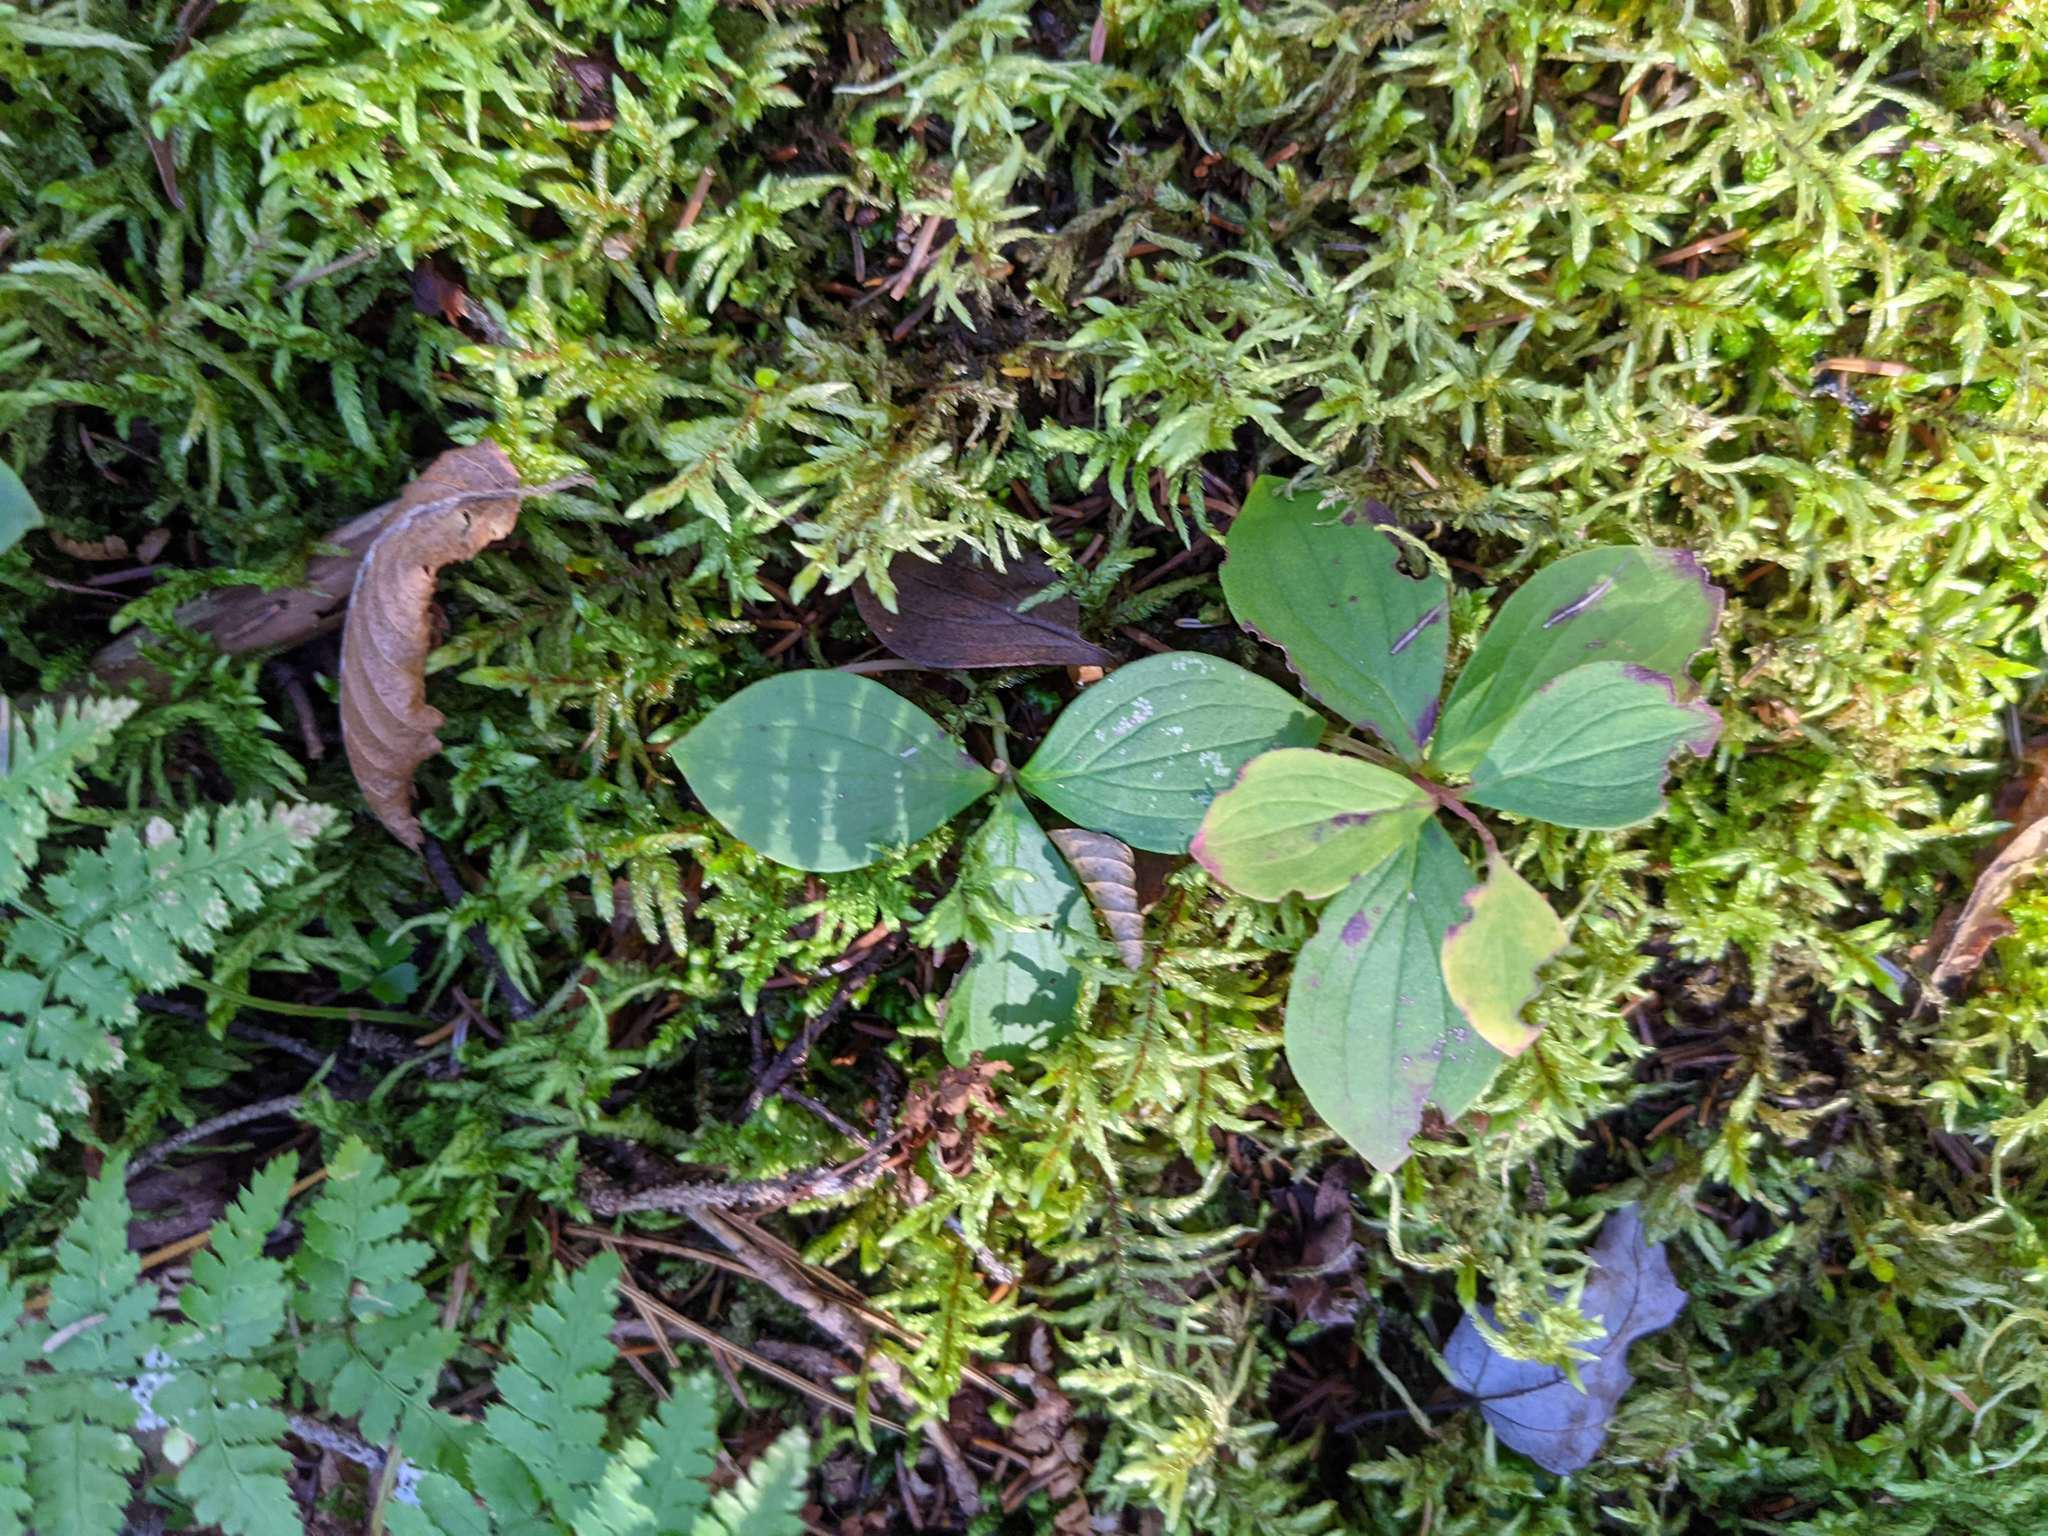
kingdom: Plantae
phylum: Tracheophyta
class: Magnoliopsida
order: Cornales
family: Cornaceae
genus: Cornus
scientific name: Cornus canadensis
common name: Creeping dogwood
